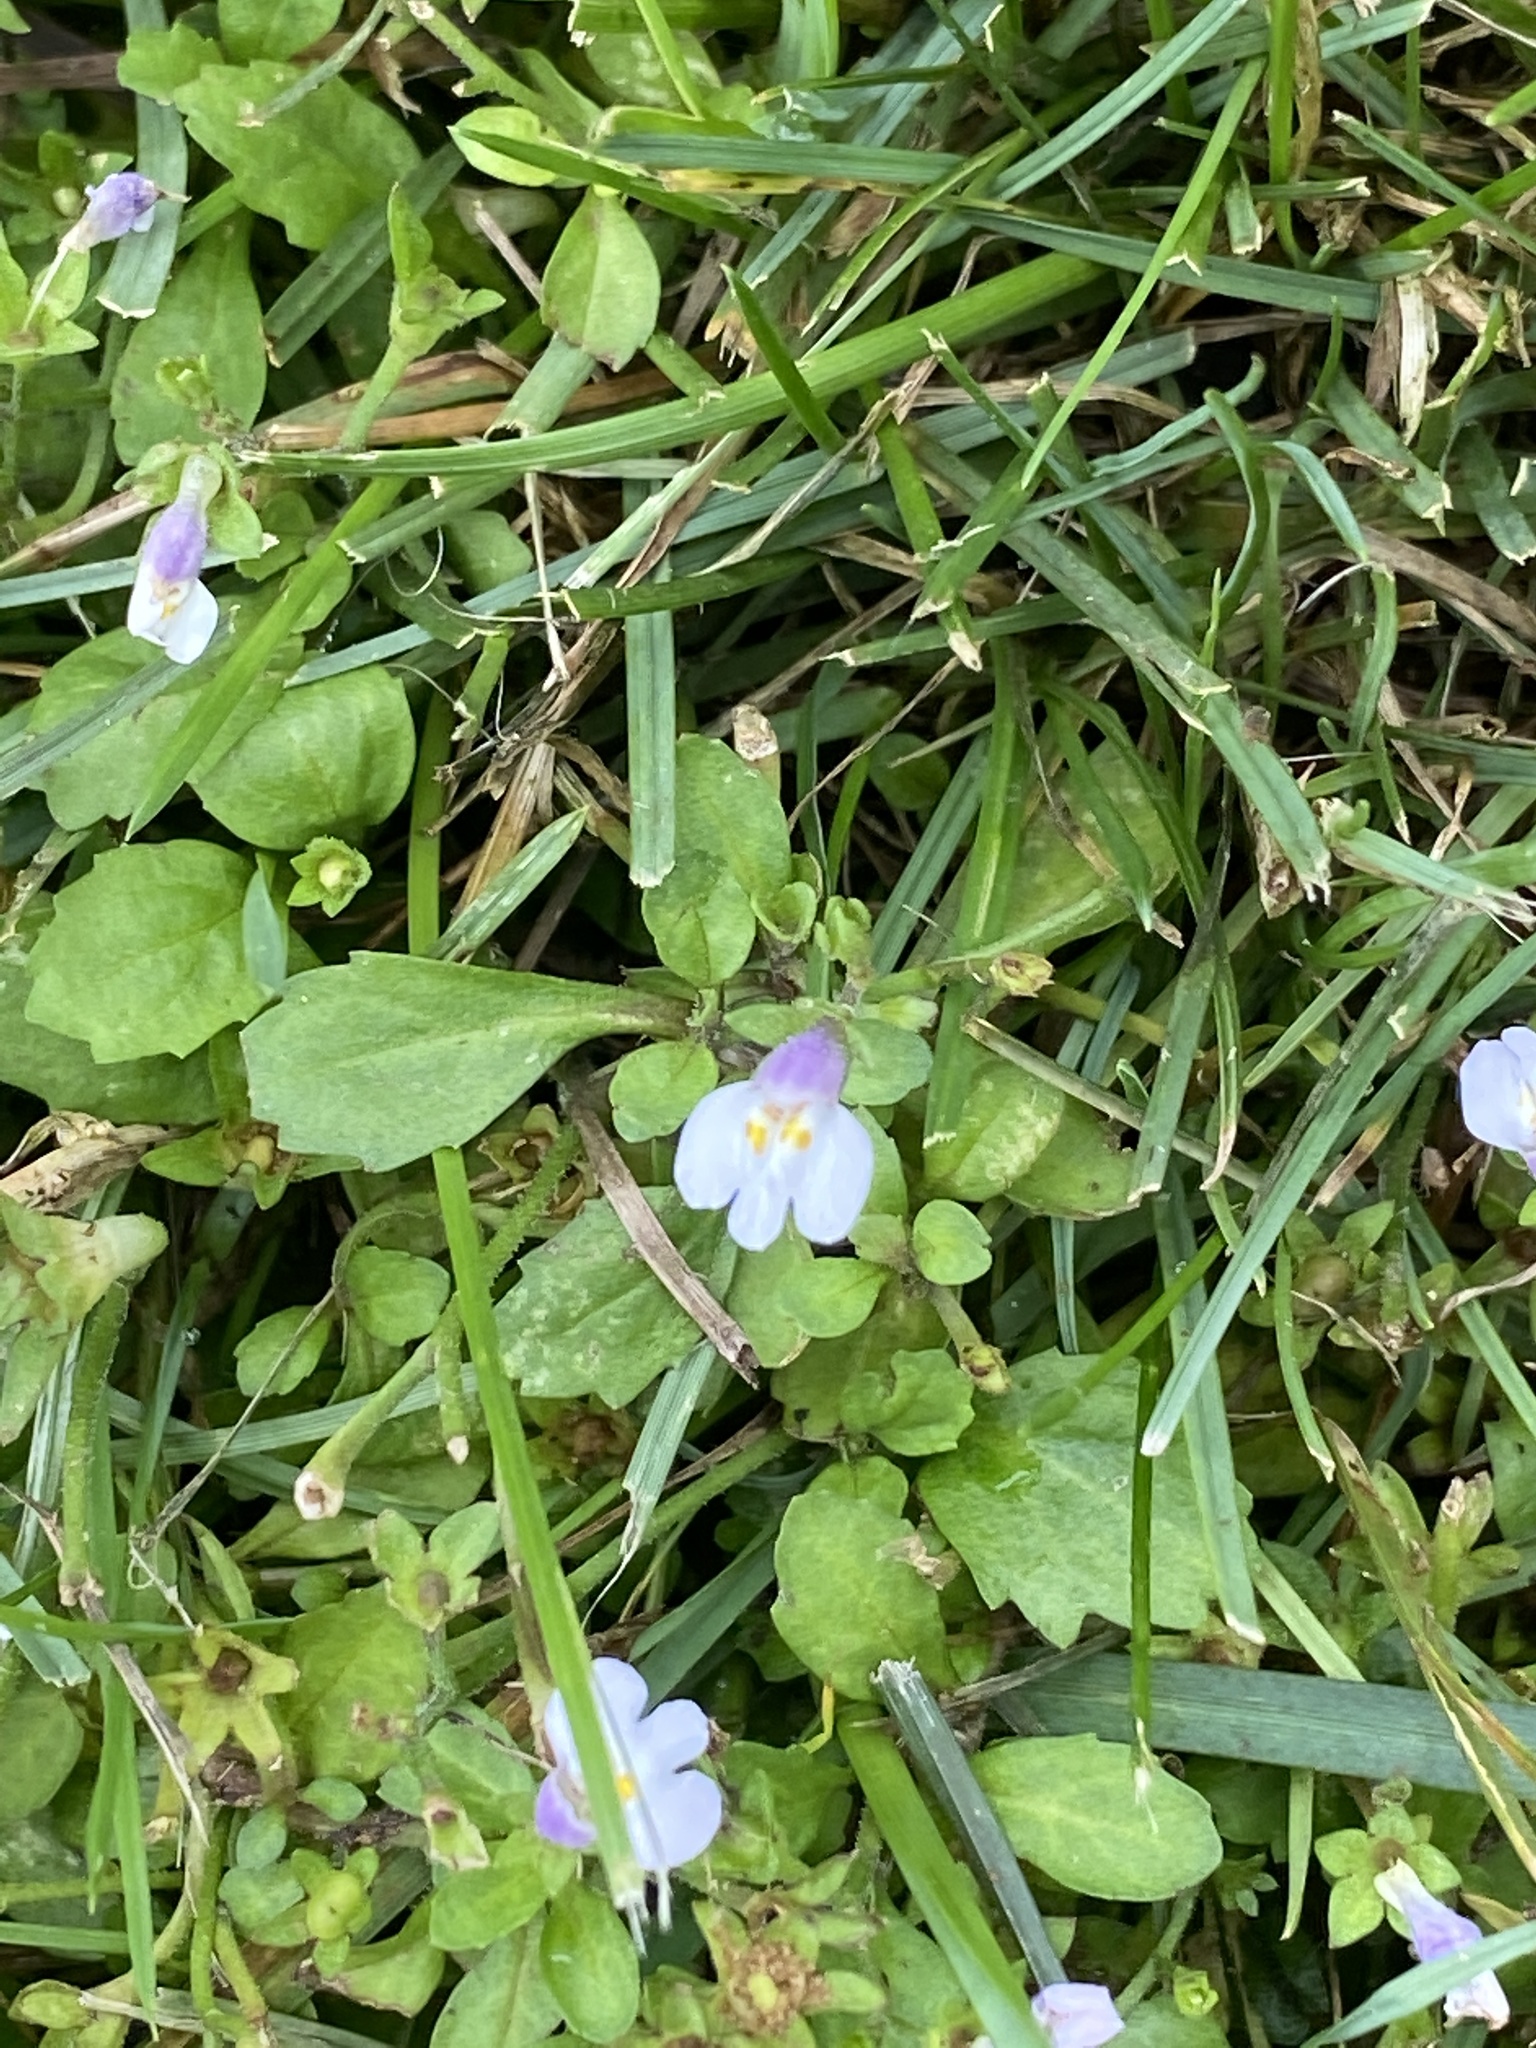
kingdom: Plantae
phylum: Tracheophyta
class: Magnoliopsida
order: Lamiales
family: Mazaceae
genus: Mazus
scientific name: Mazus pumilus
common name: Japanese mazus
